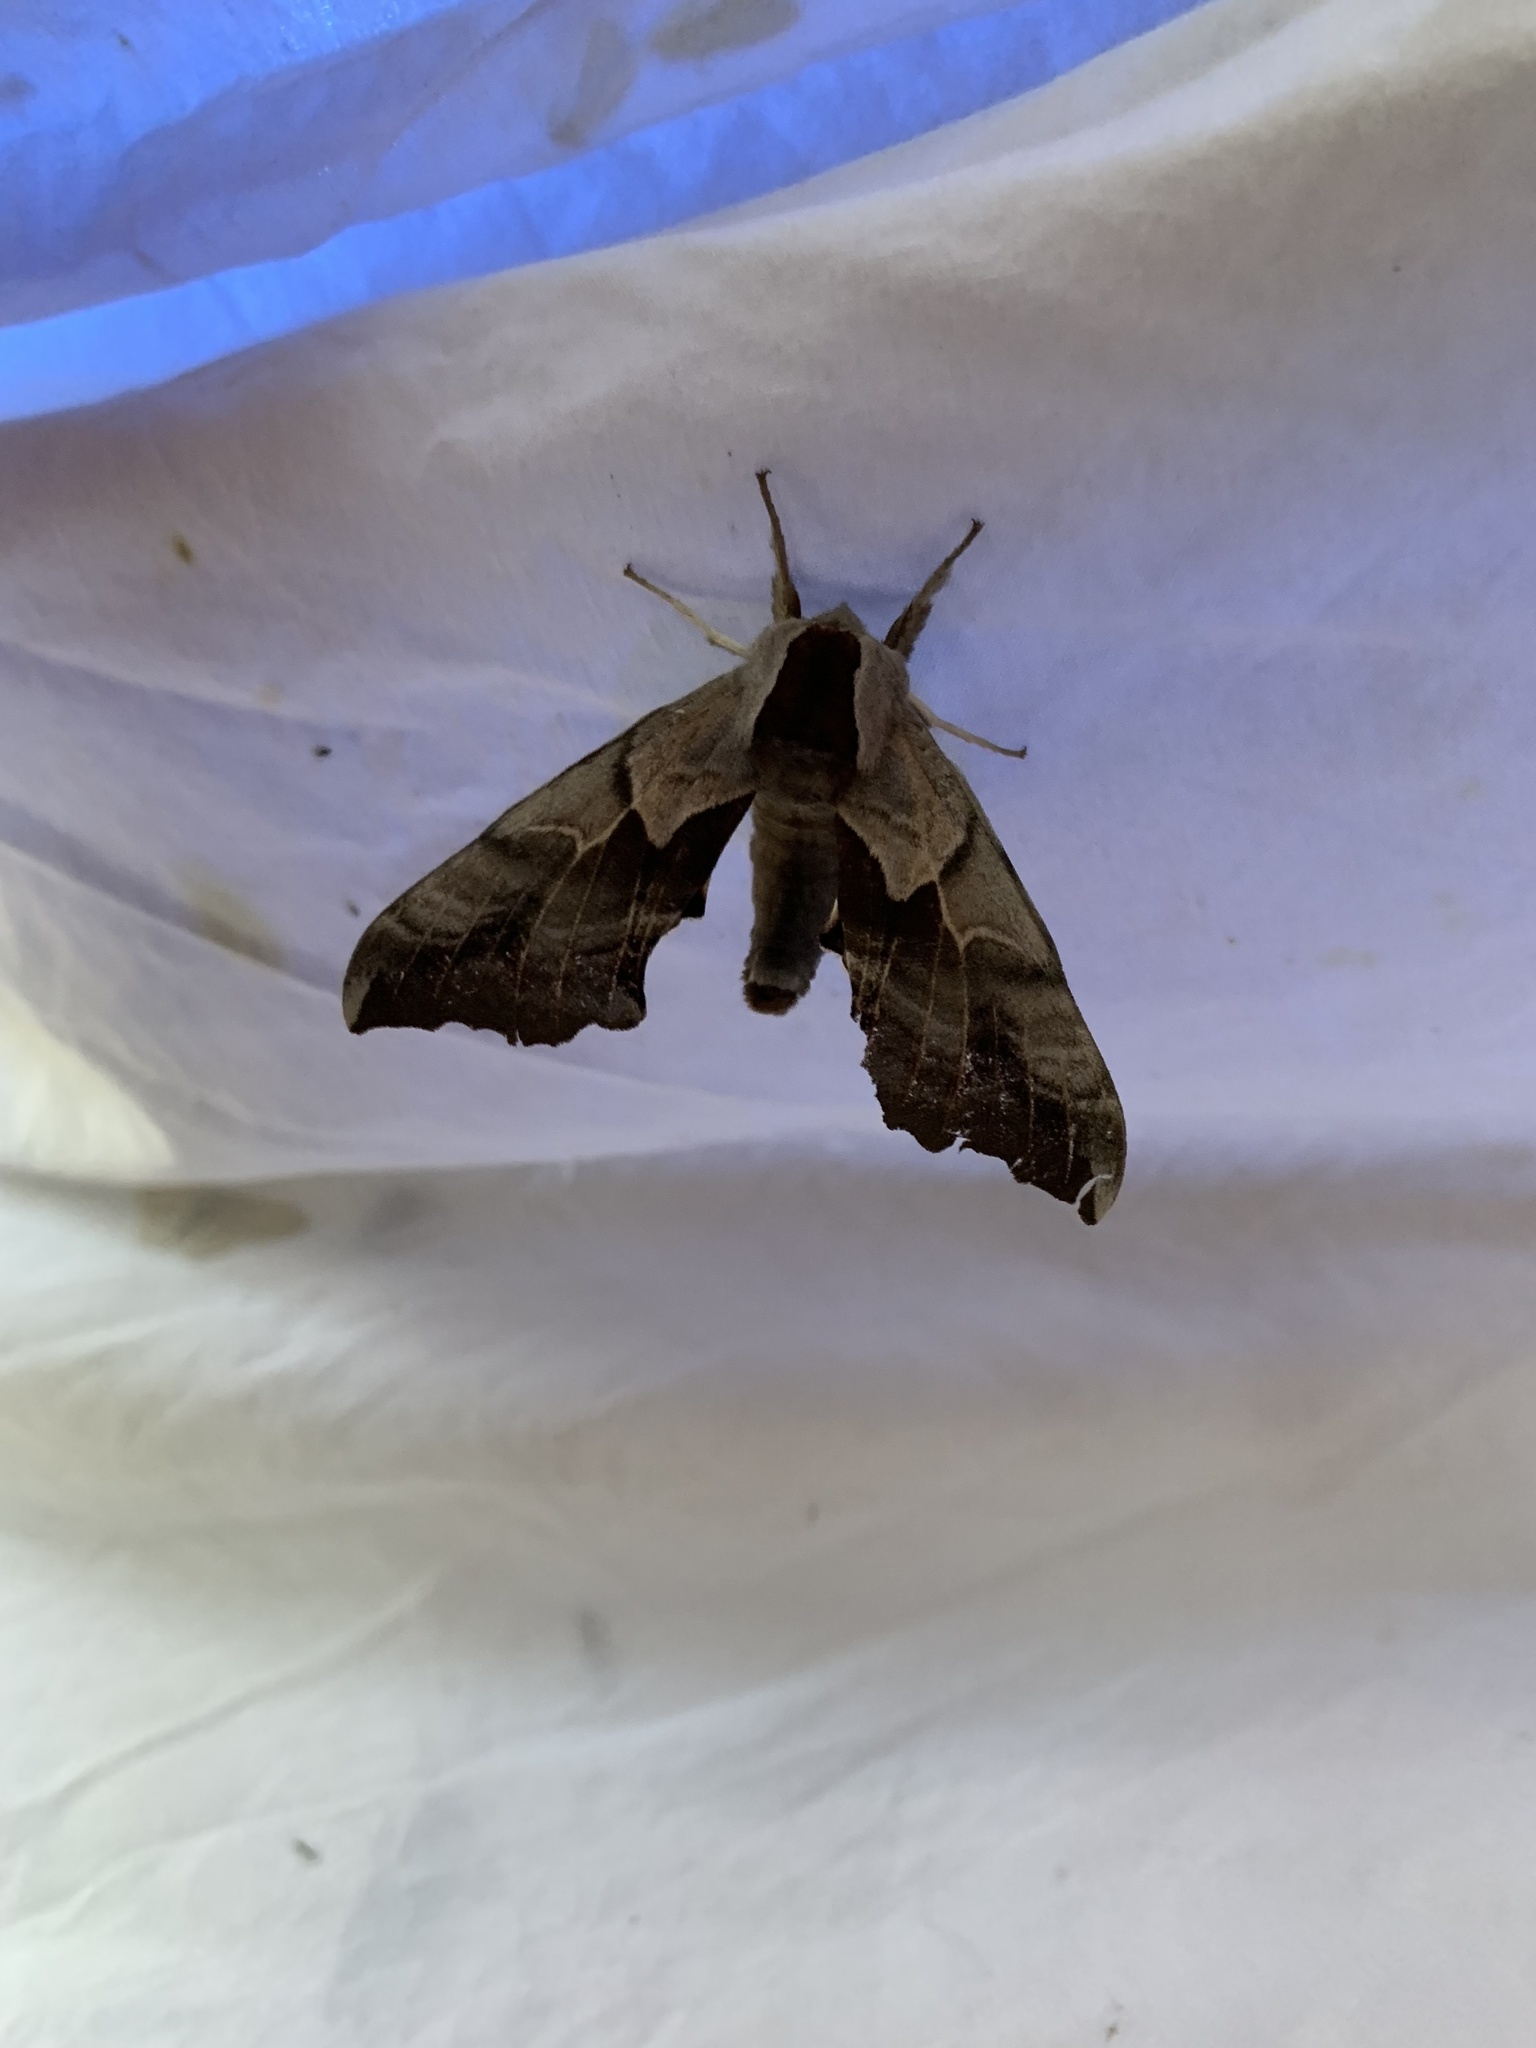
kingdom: Animalia
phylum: Arthropoda
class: Insecta
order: Lepidoptera
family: Sphingidae
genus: Smerinthus
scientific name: Smerinthus cerisyi
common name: Cerisy's sphinx moth
